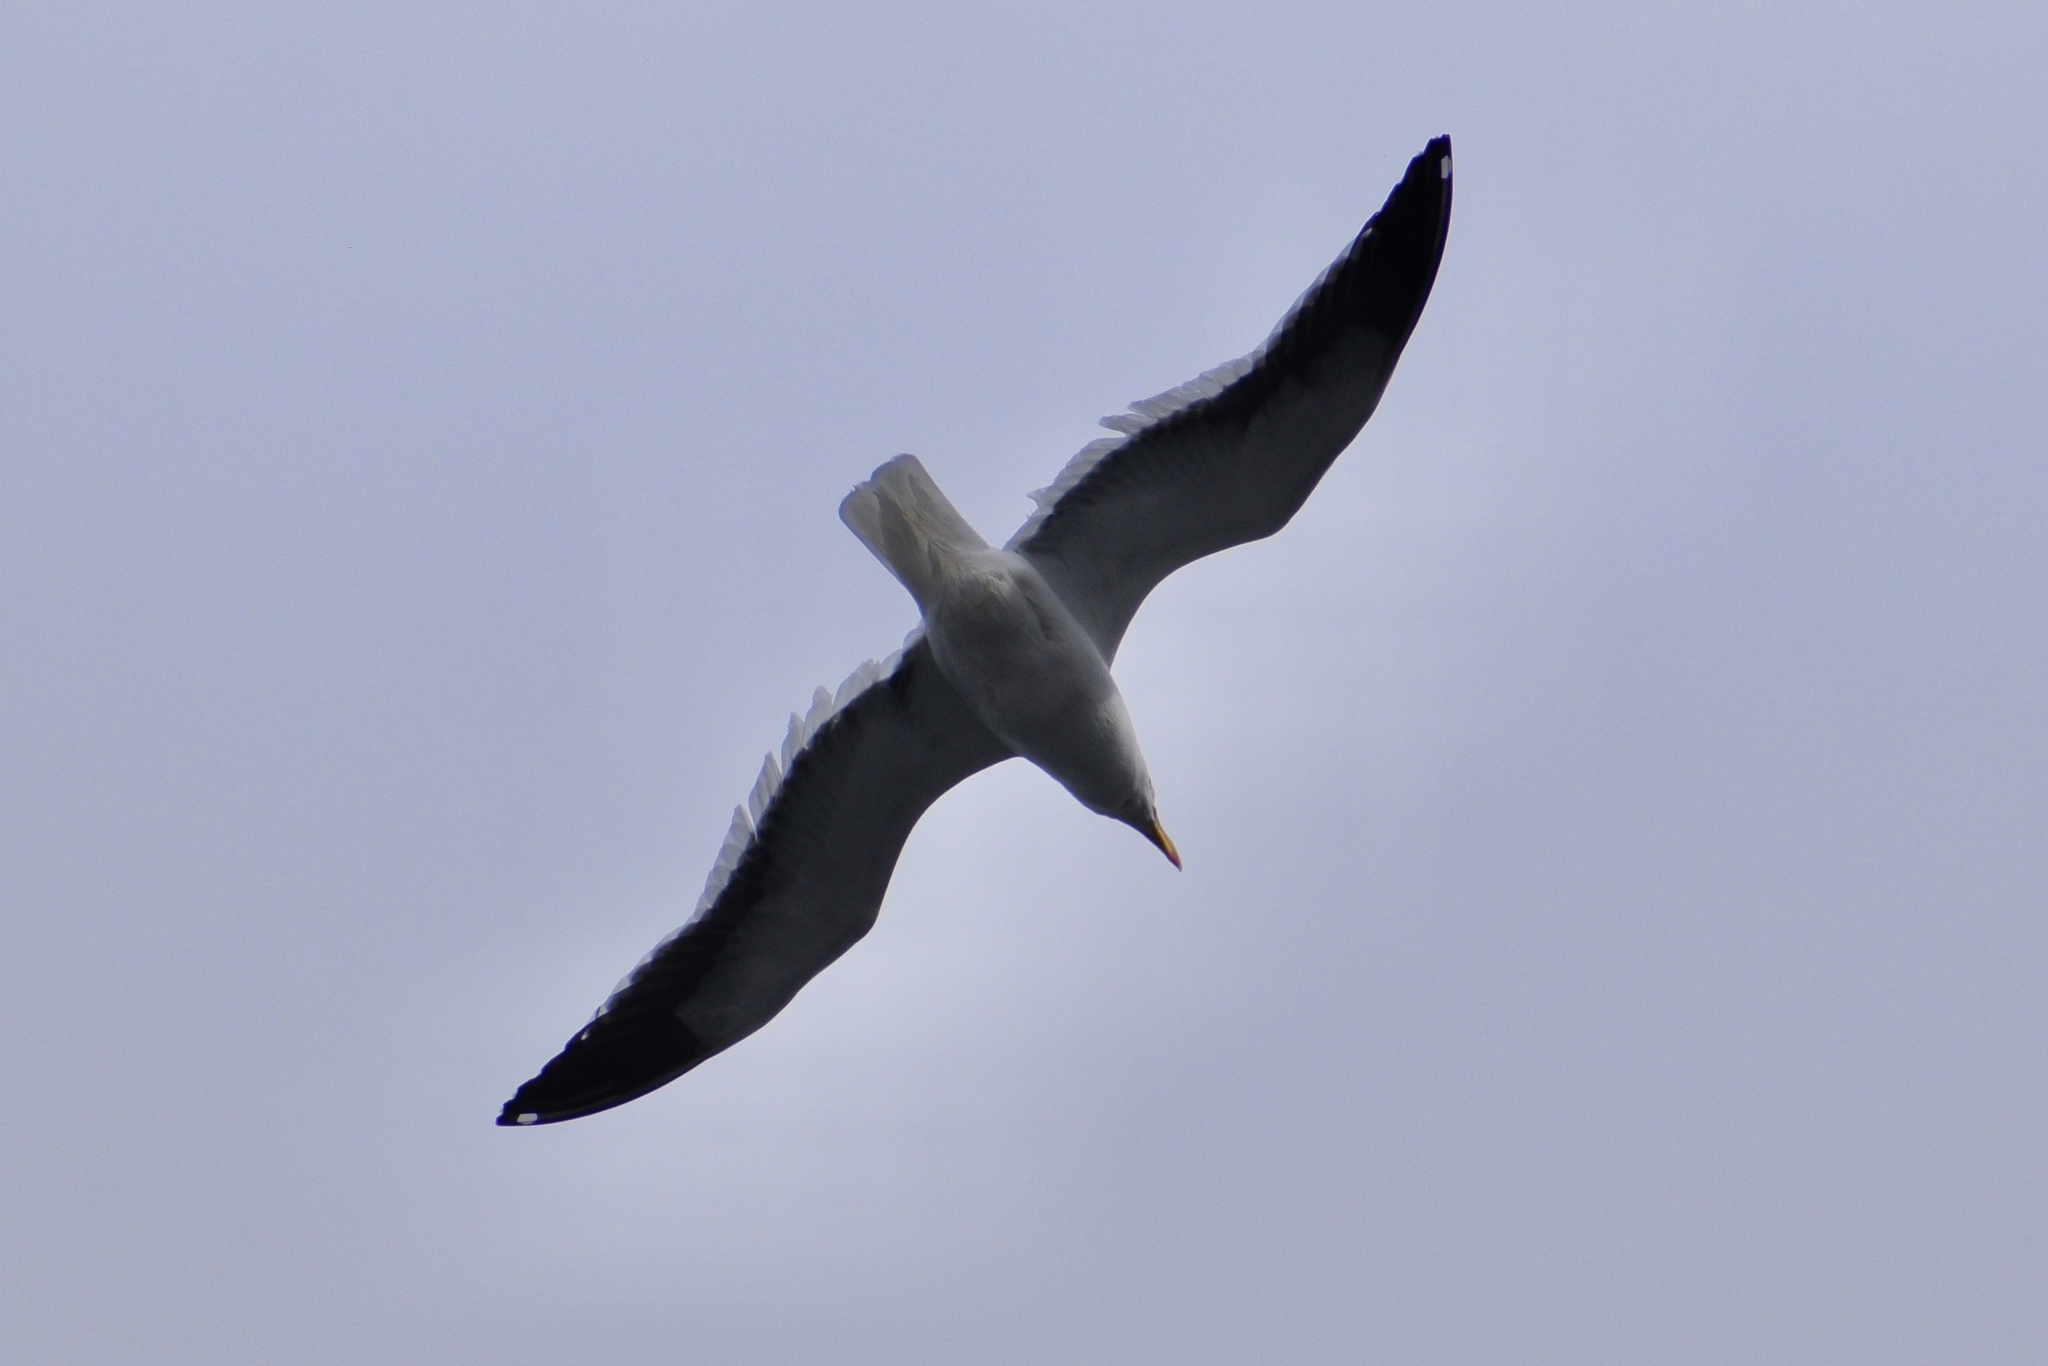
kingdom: Animalia
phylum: Chordata
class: Aves
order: Charadriiformes
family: Laridae
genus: Larus
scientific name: Larus dominicanus
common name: Kelp gull
